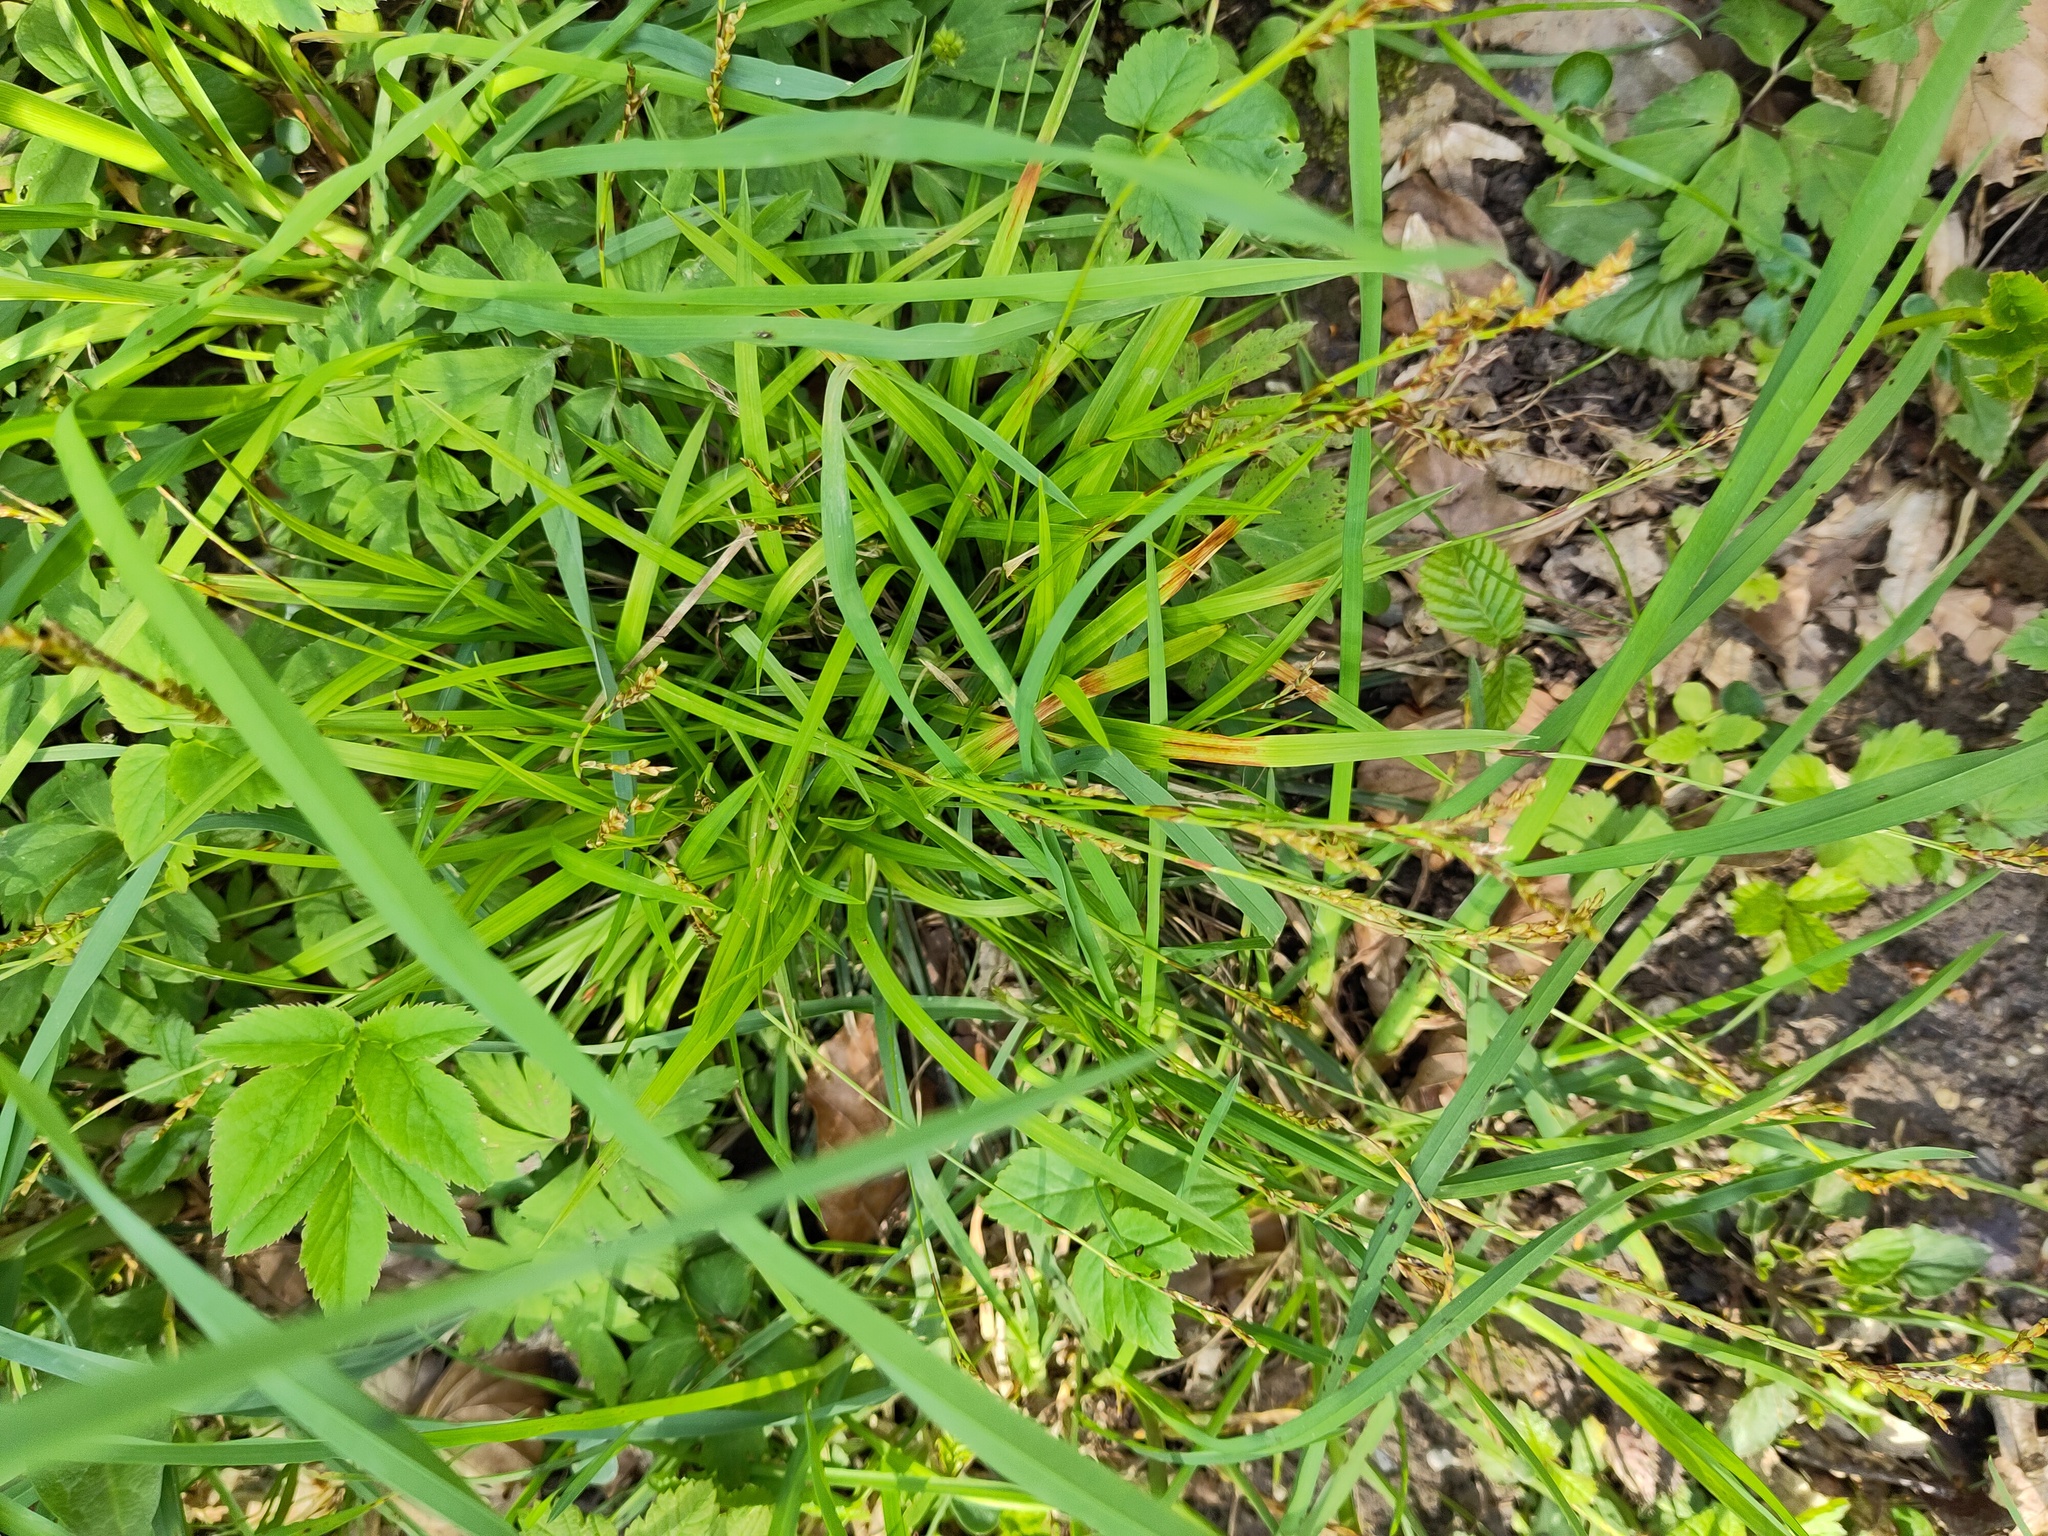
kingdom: Plantae
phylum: Tracheophyta
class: Liliopsida
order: Poales
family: Cyperaceae
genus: Carex
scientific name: Carex digitata
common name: Fingered sedge
